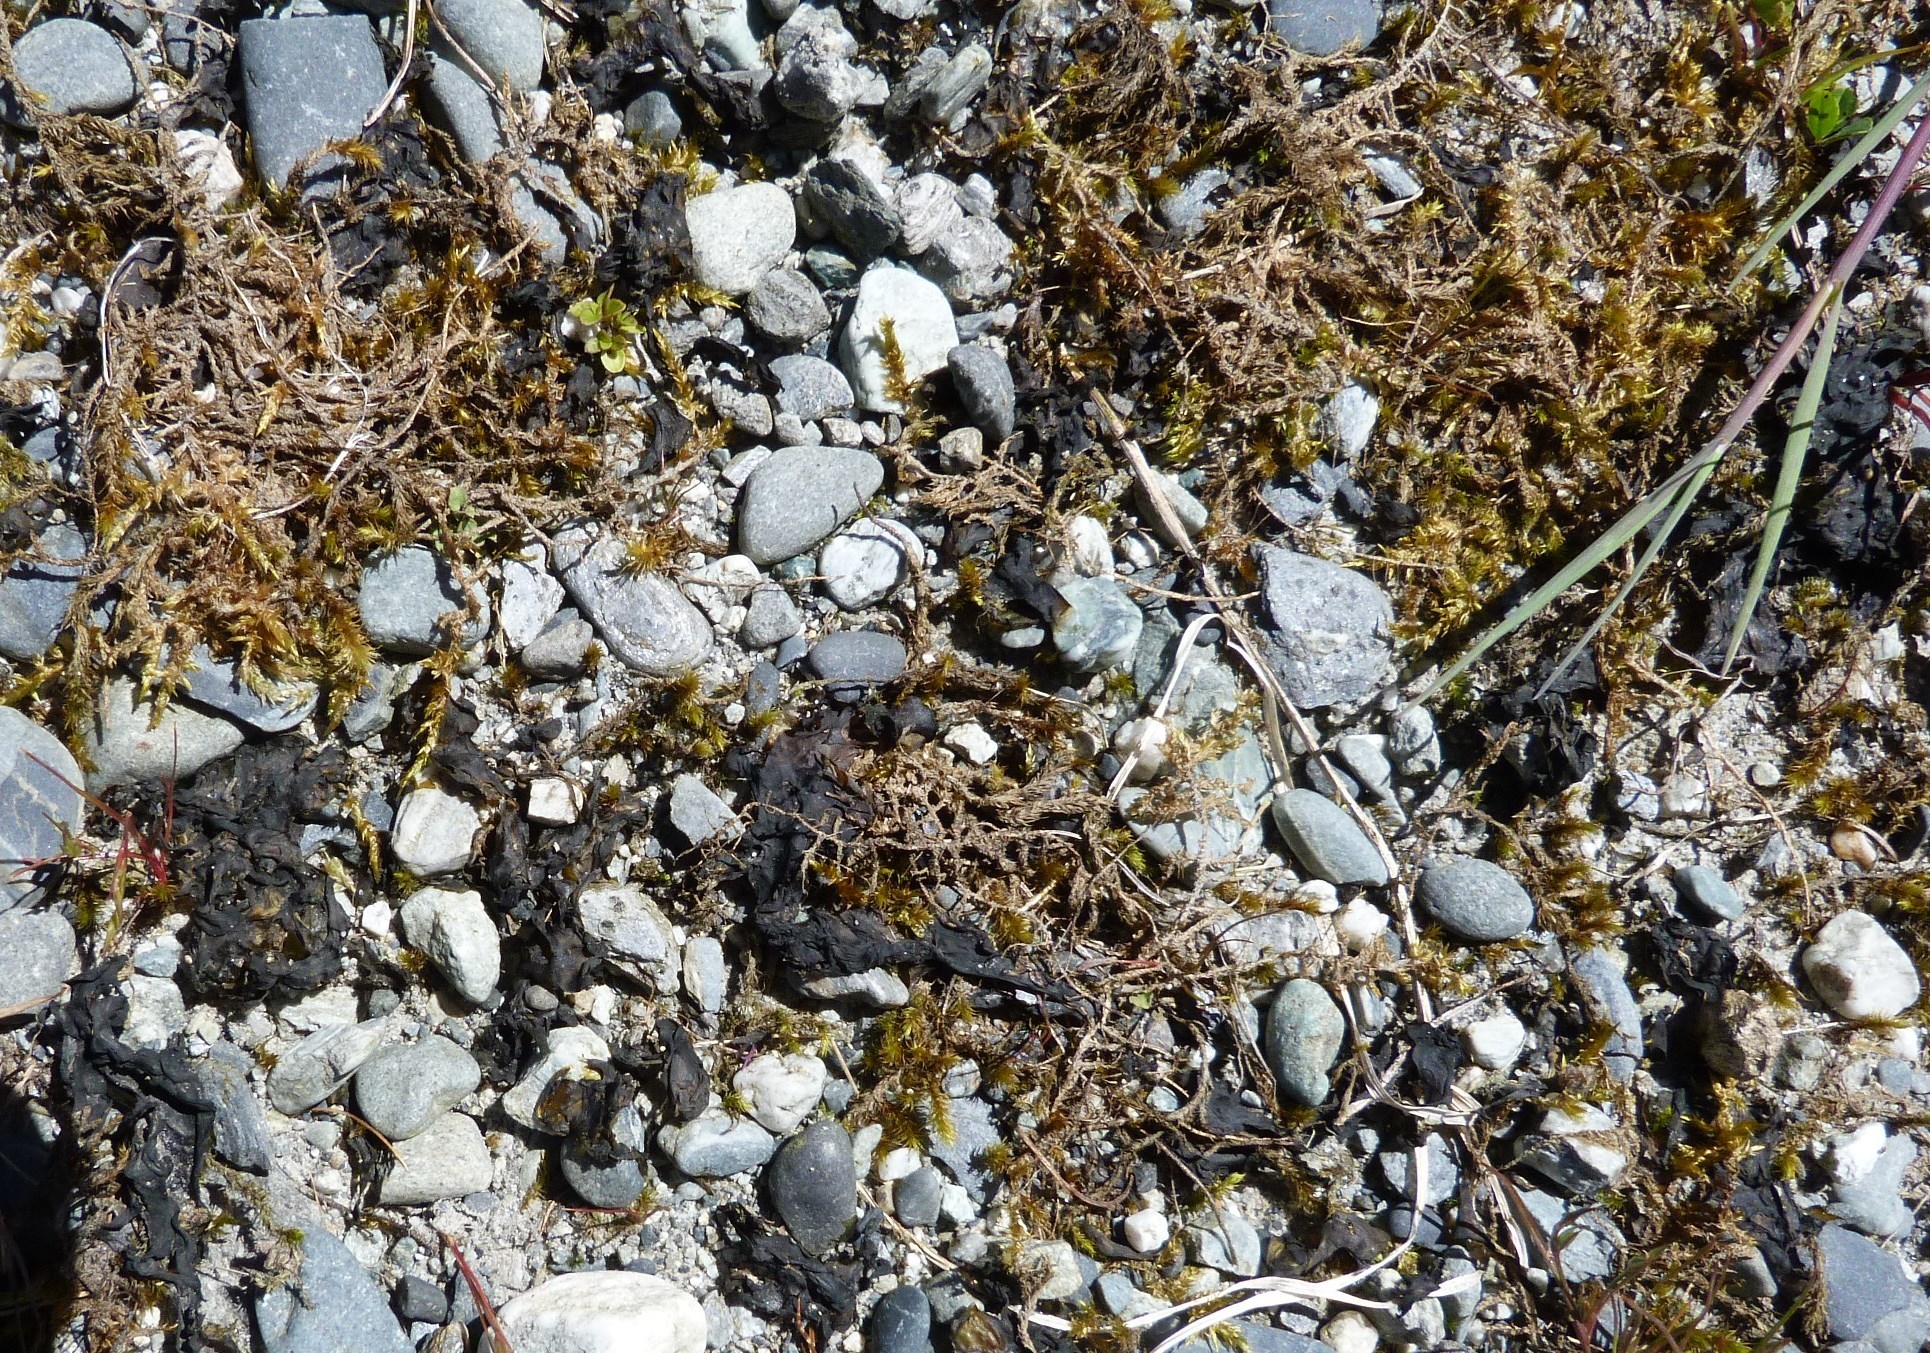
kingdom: Bacteria
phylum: Cyanobacteria
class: Cyanobacteriia
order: Cyanobacteriales
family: Nostocaceae
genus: Nostoc
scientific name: Nostoc commune
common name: Star jelly
